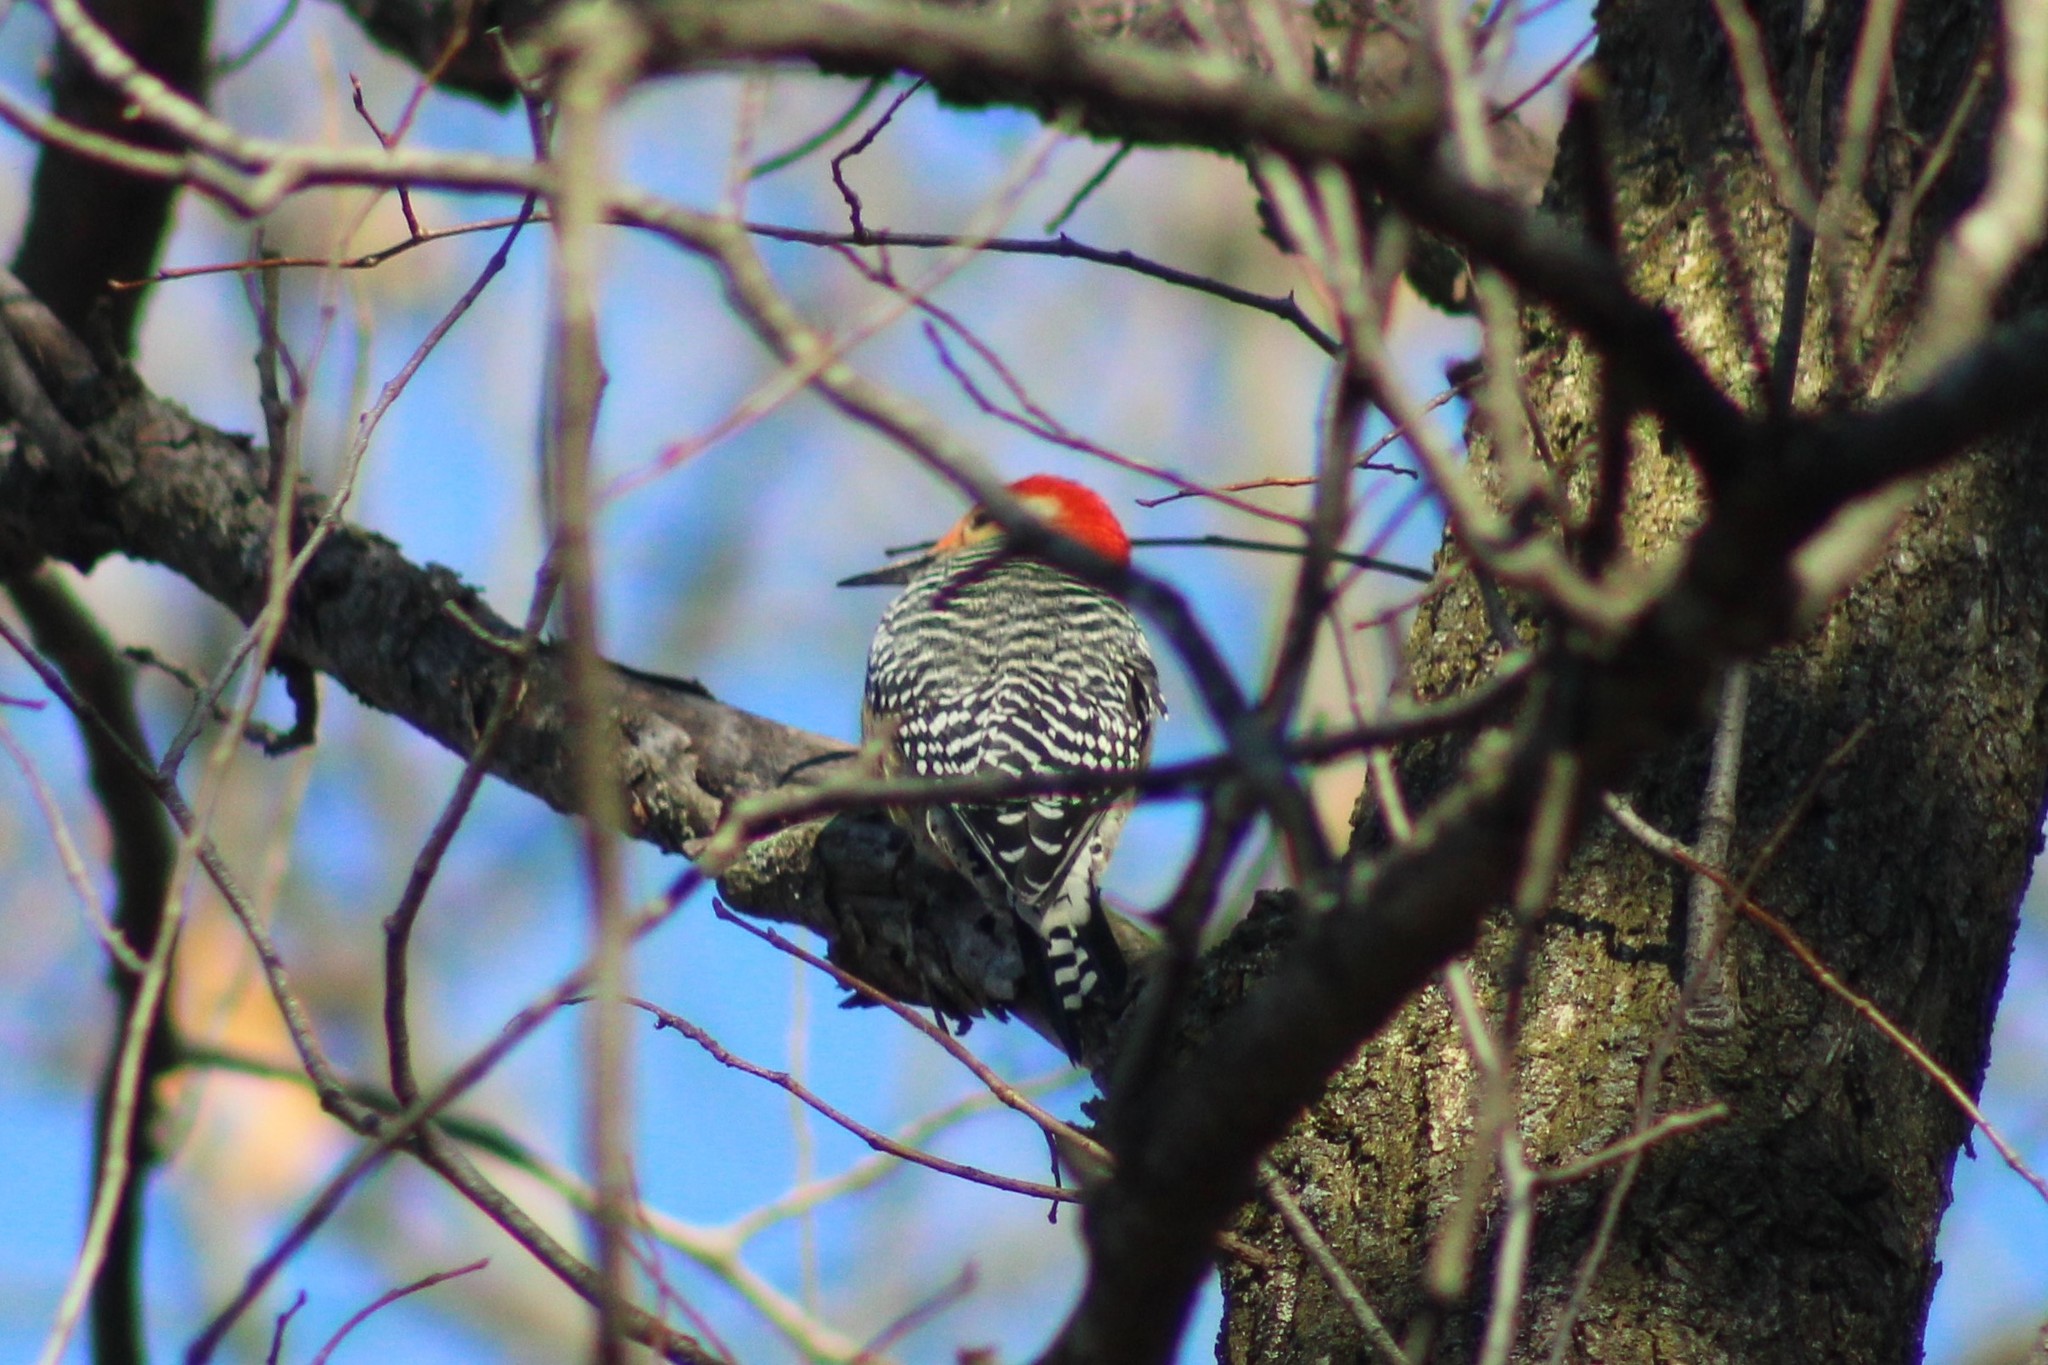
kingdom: Animalia
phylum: Chordata
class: Aves
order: Piciformes
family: Picidae
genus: Melanerpes
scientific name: Melanerpes carolinus
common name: Red-bellied woodpecker
